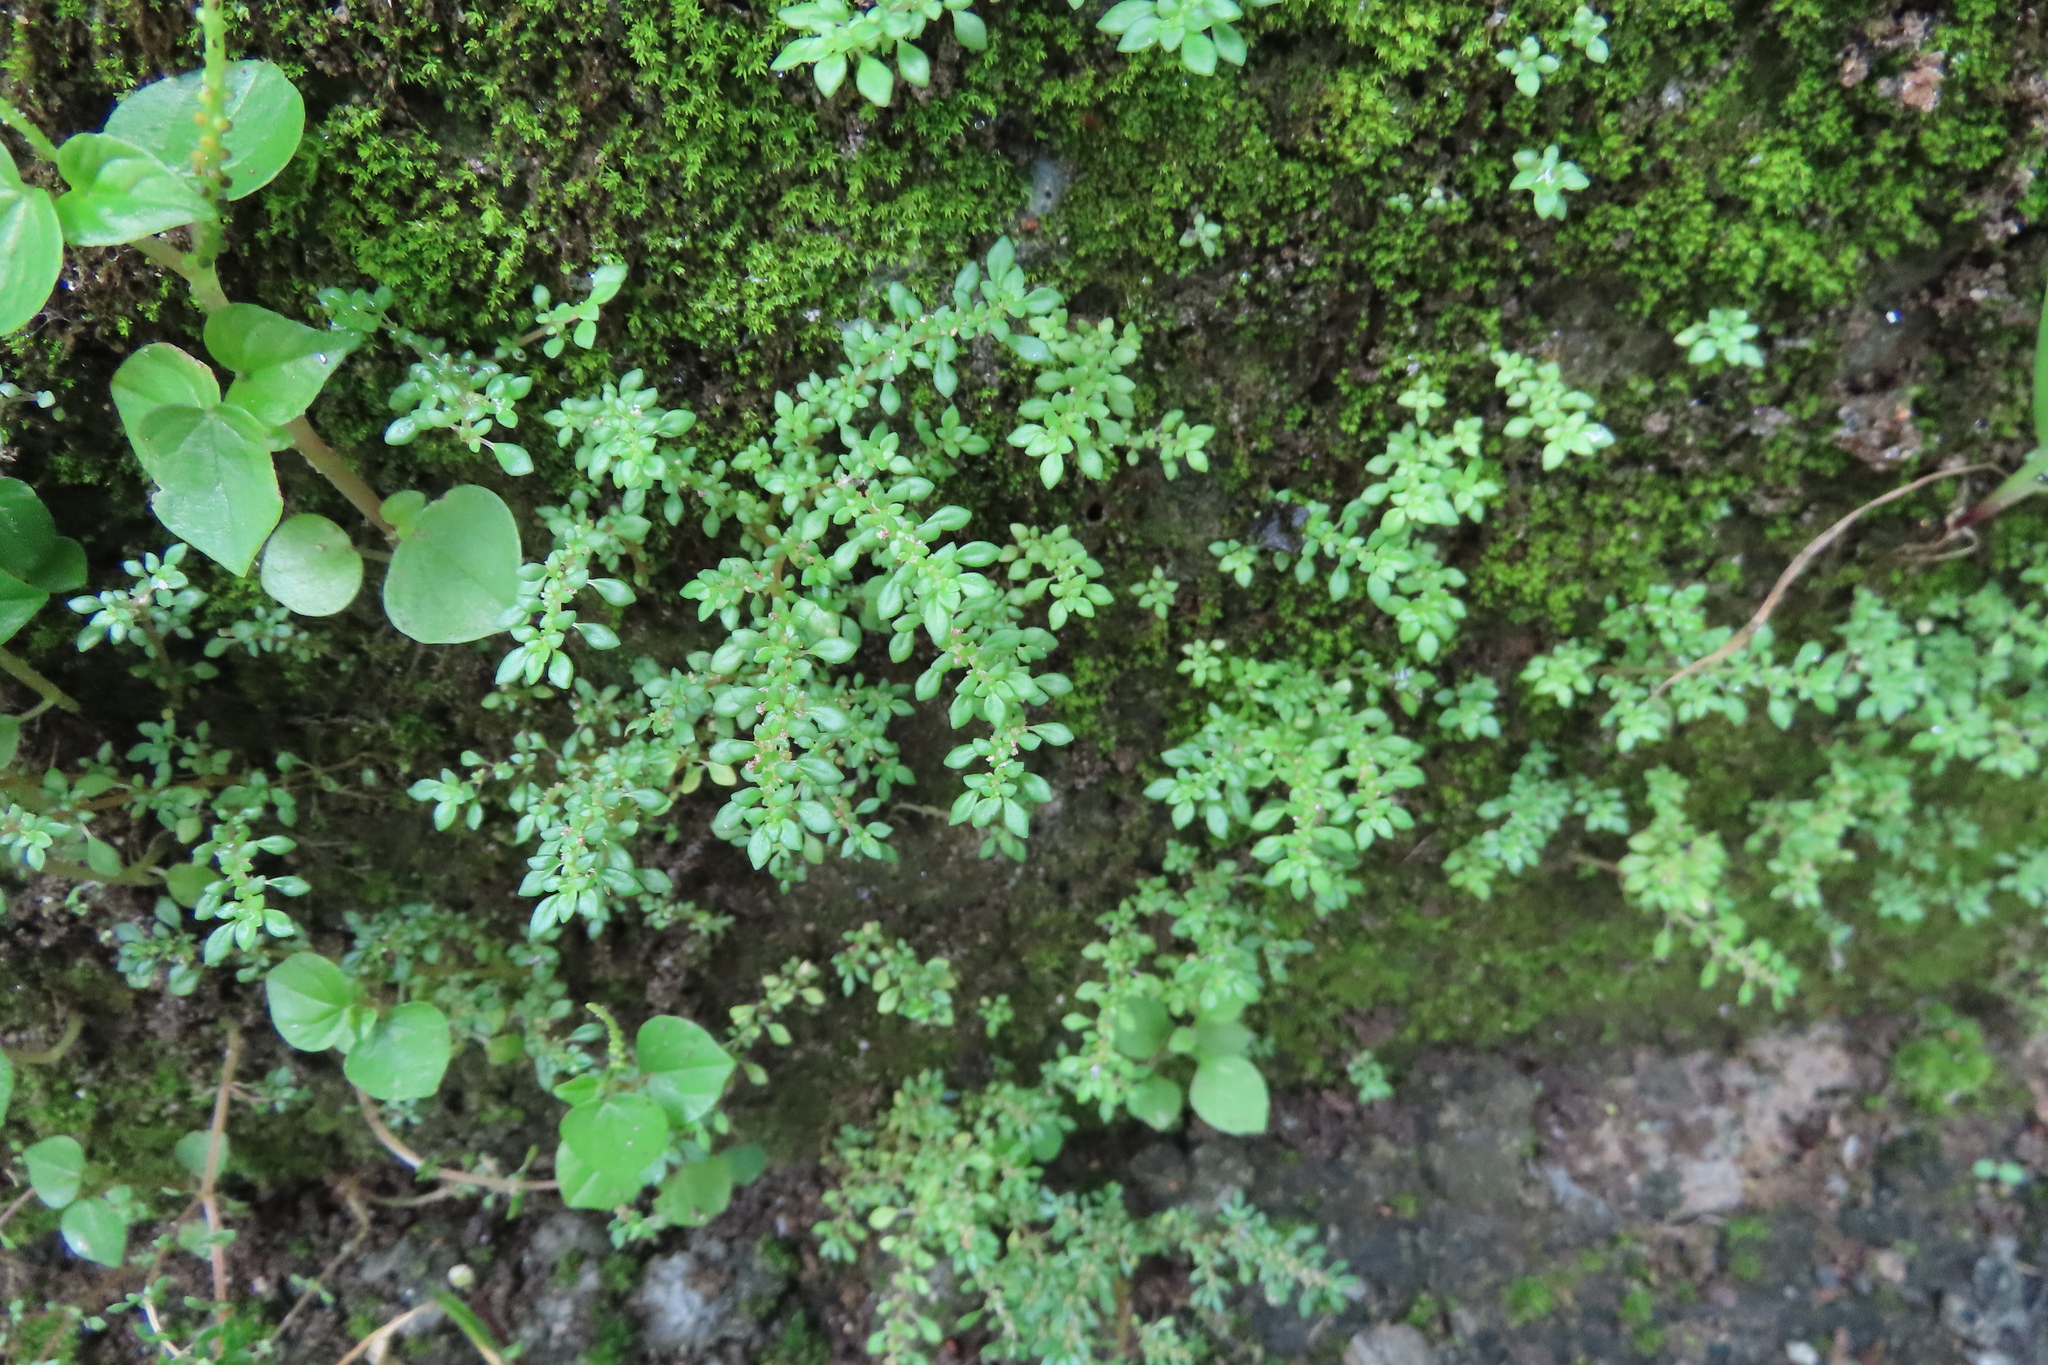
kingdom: Plantae
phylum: Tracheophyta
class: Magnoliopsida
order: Rosales
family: Urticaceae
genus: Pilea
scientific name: Pilea microphylla
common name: Artillery-plant
